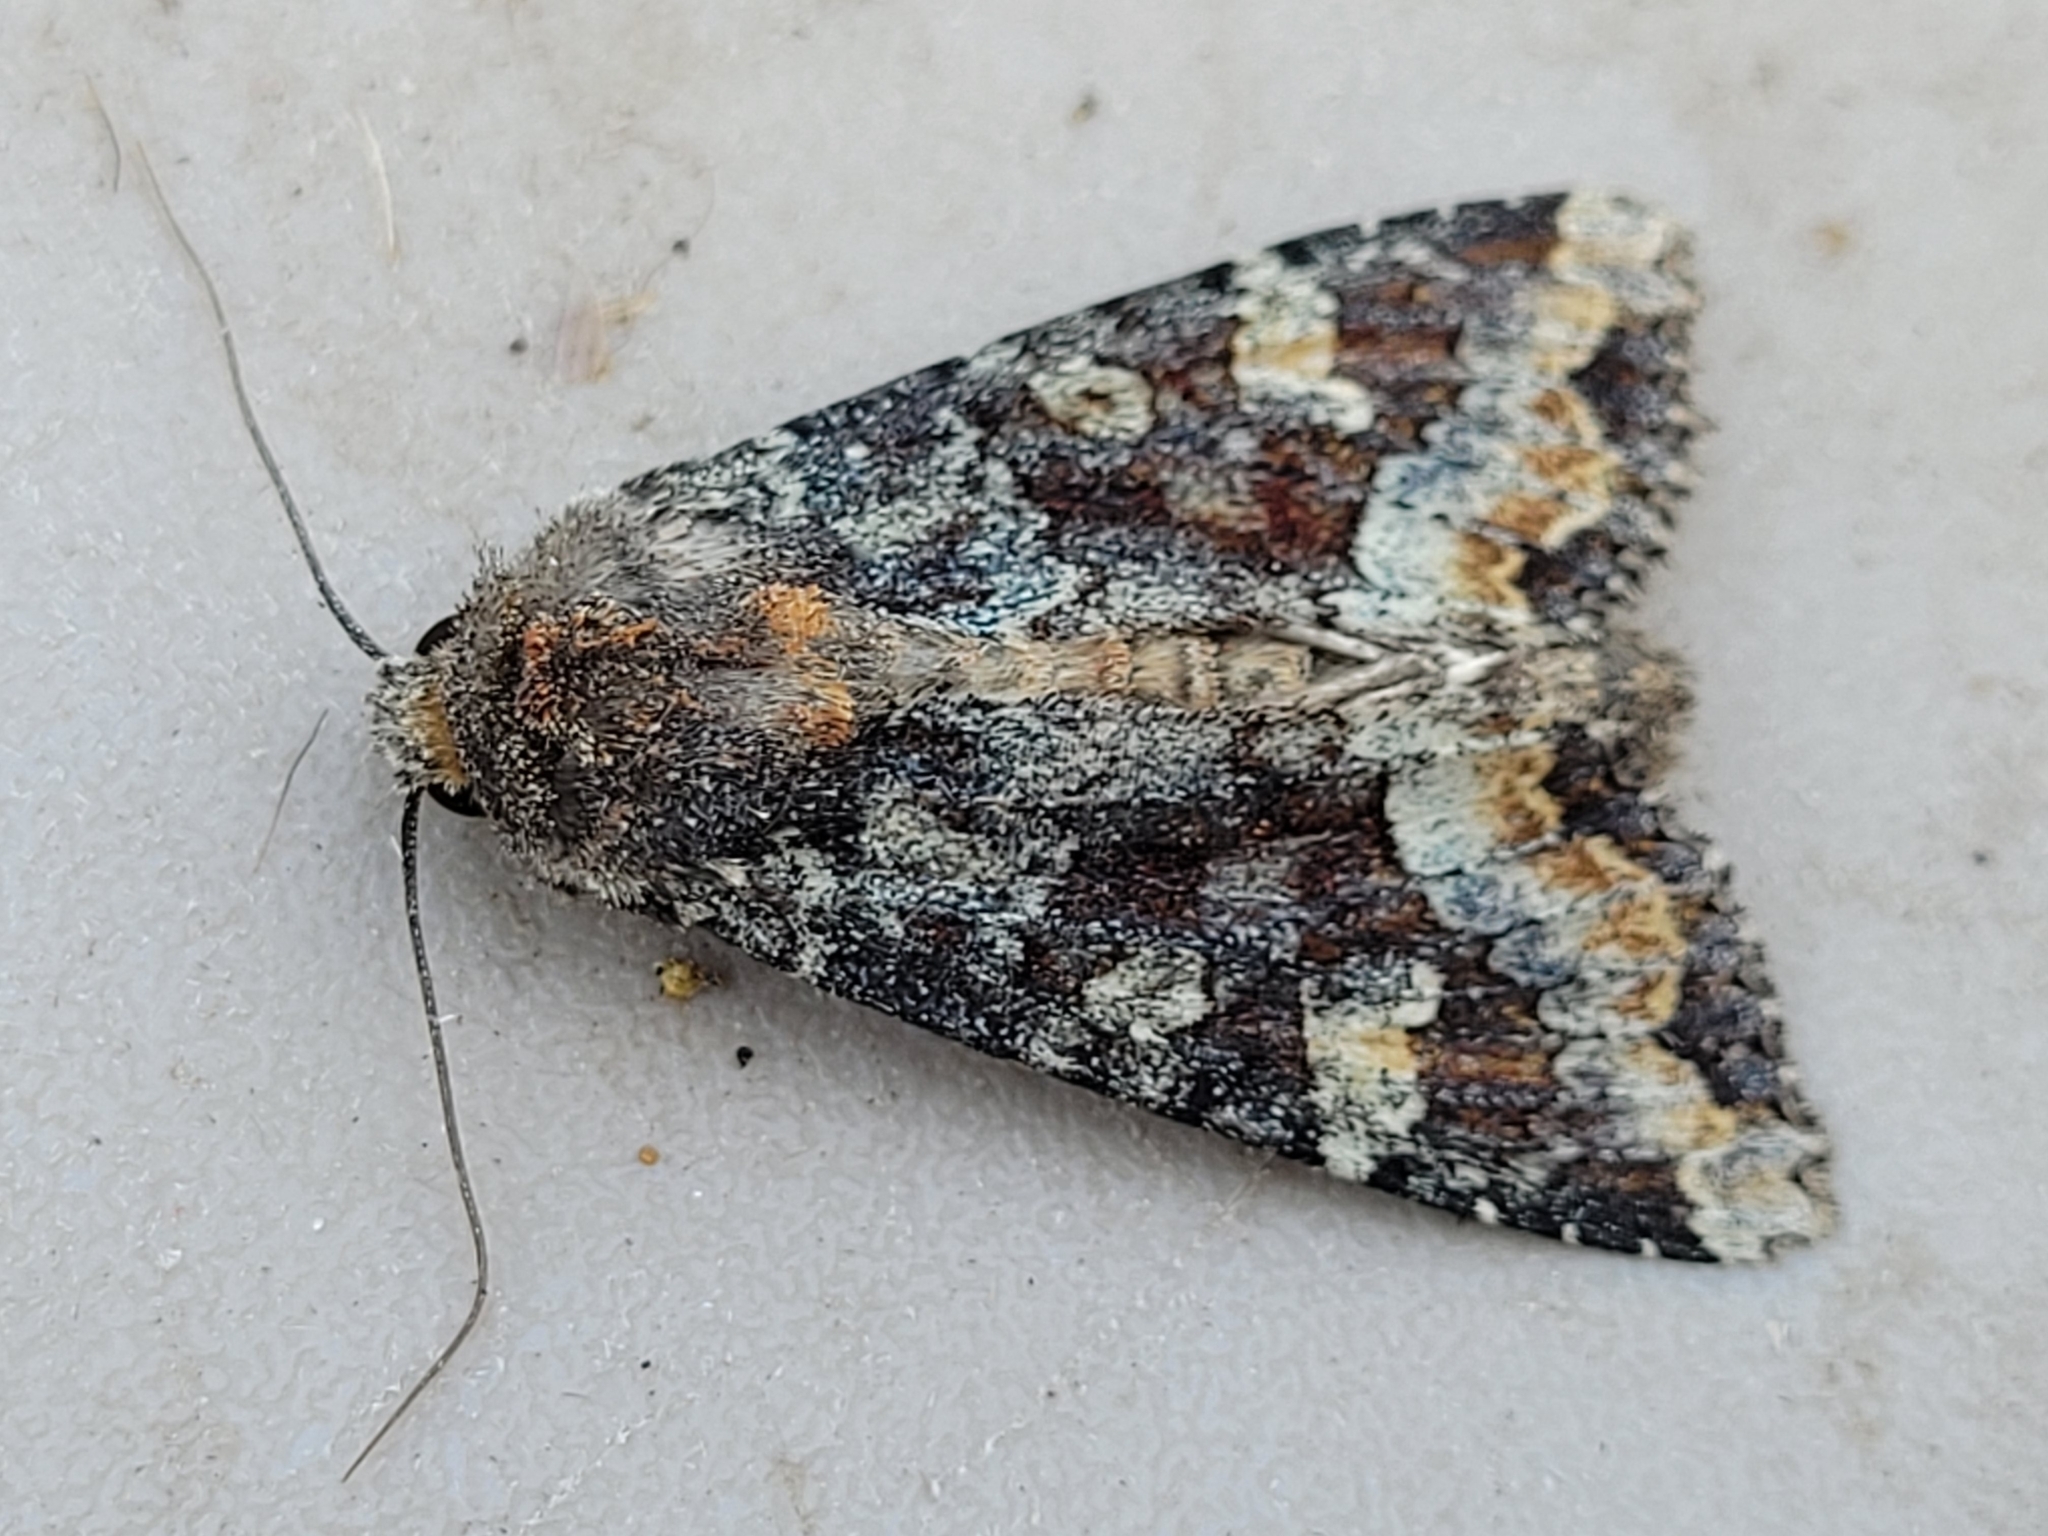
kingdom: Animalia
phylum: Arthropoda
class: Insecta
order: Lepidoptera
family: Noctuidae
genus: Apamea
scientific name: Apamea amputatrix
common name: Yellow-headed cutworm moth
